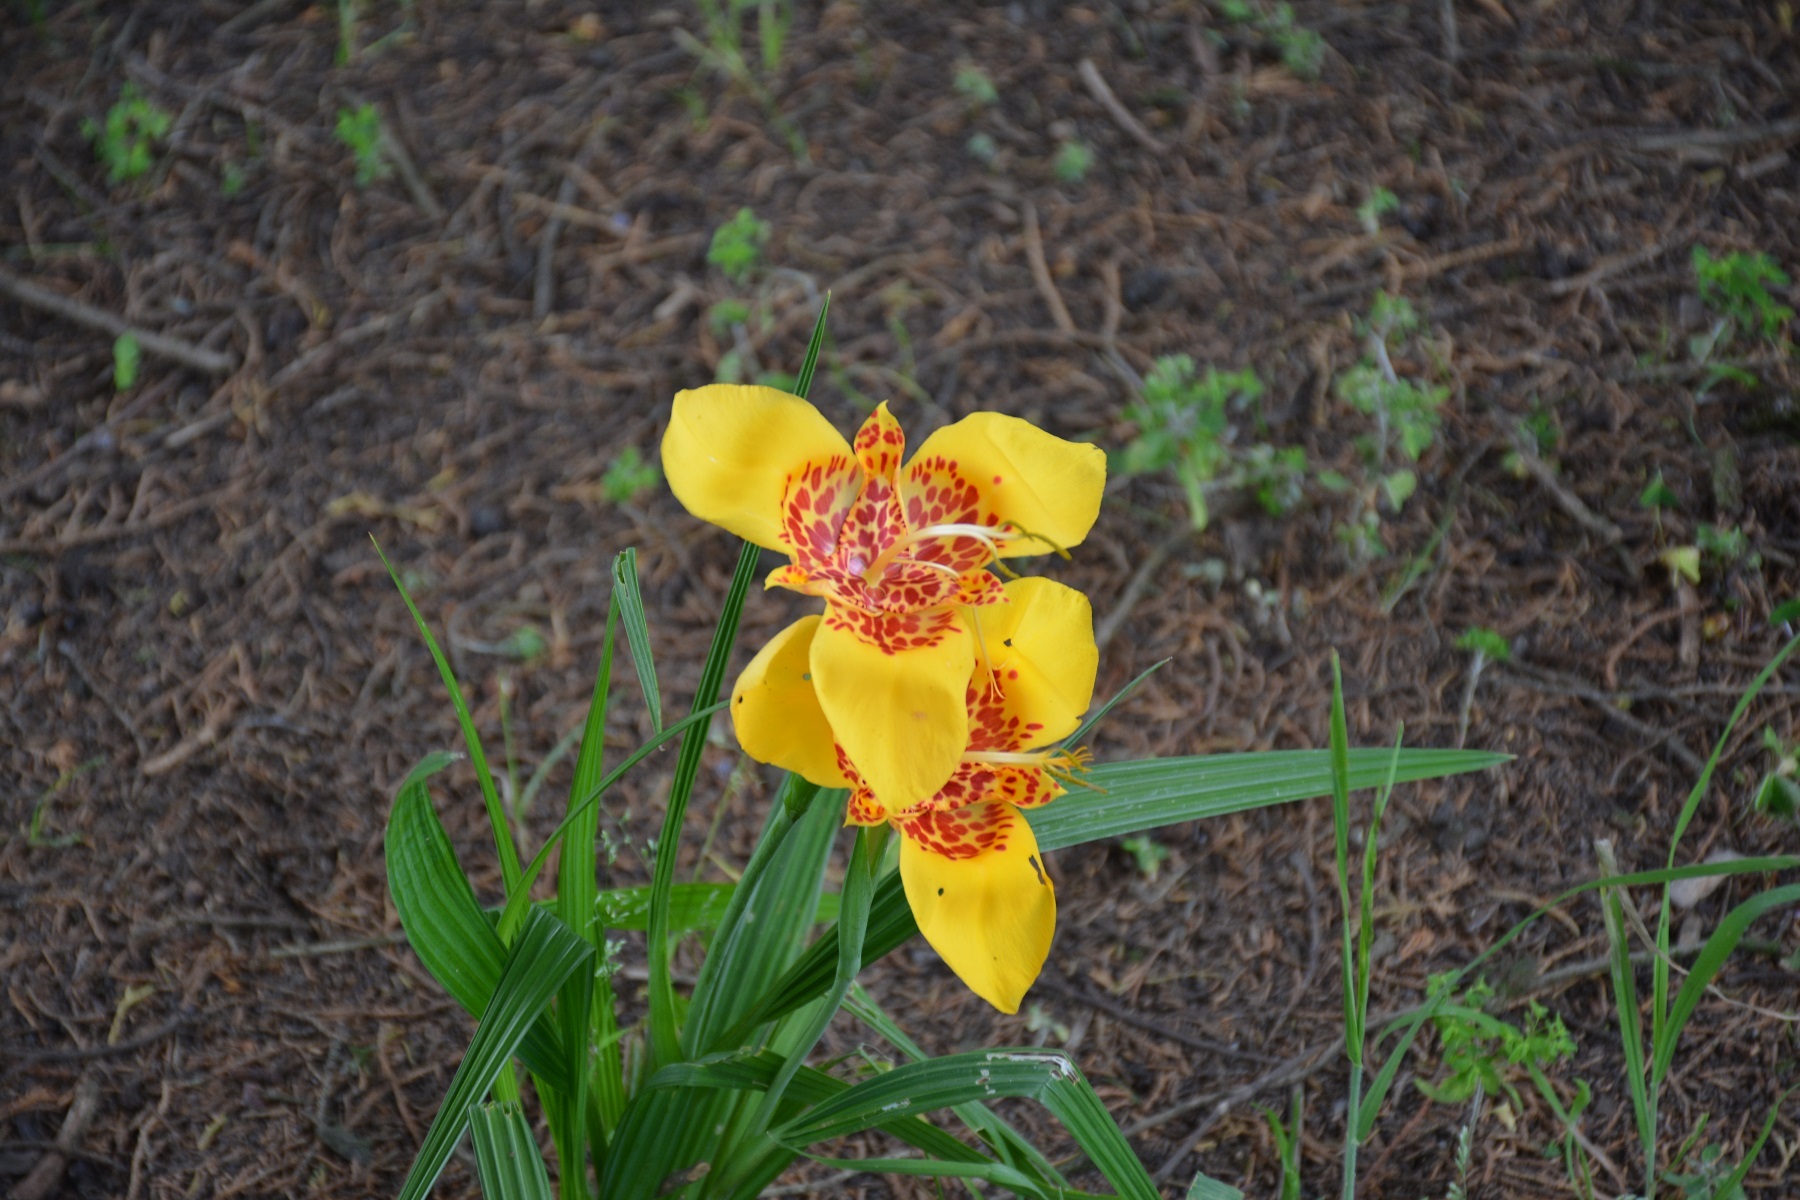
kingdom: Plantae
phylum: Tracheophyta
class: Liliopsida
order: Asparagales
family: Iridaceae
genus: Tigridia
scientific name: Tigridia pavonia
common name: Peacock-flower
